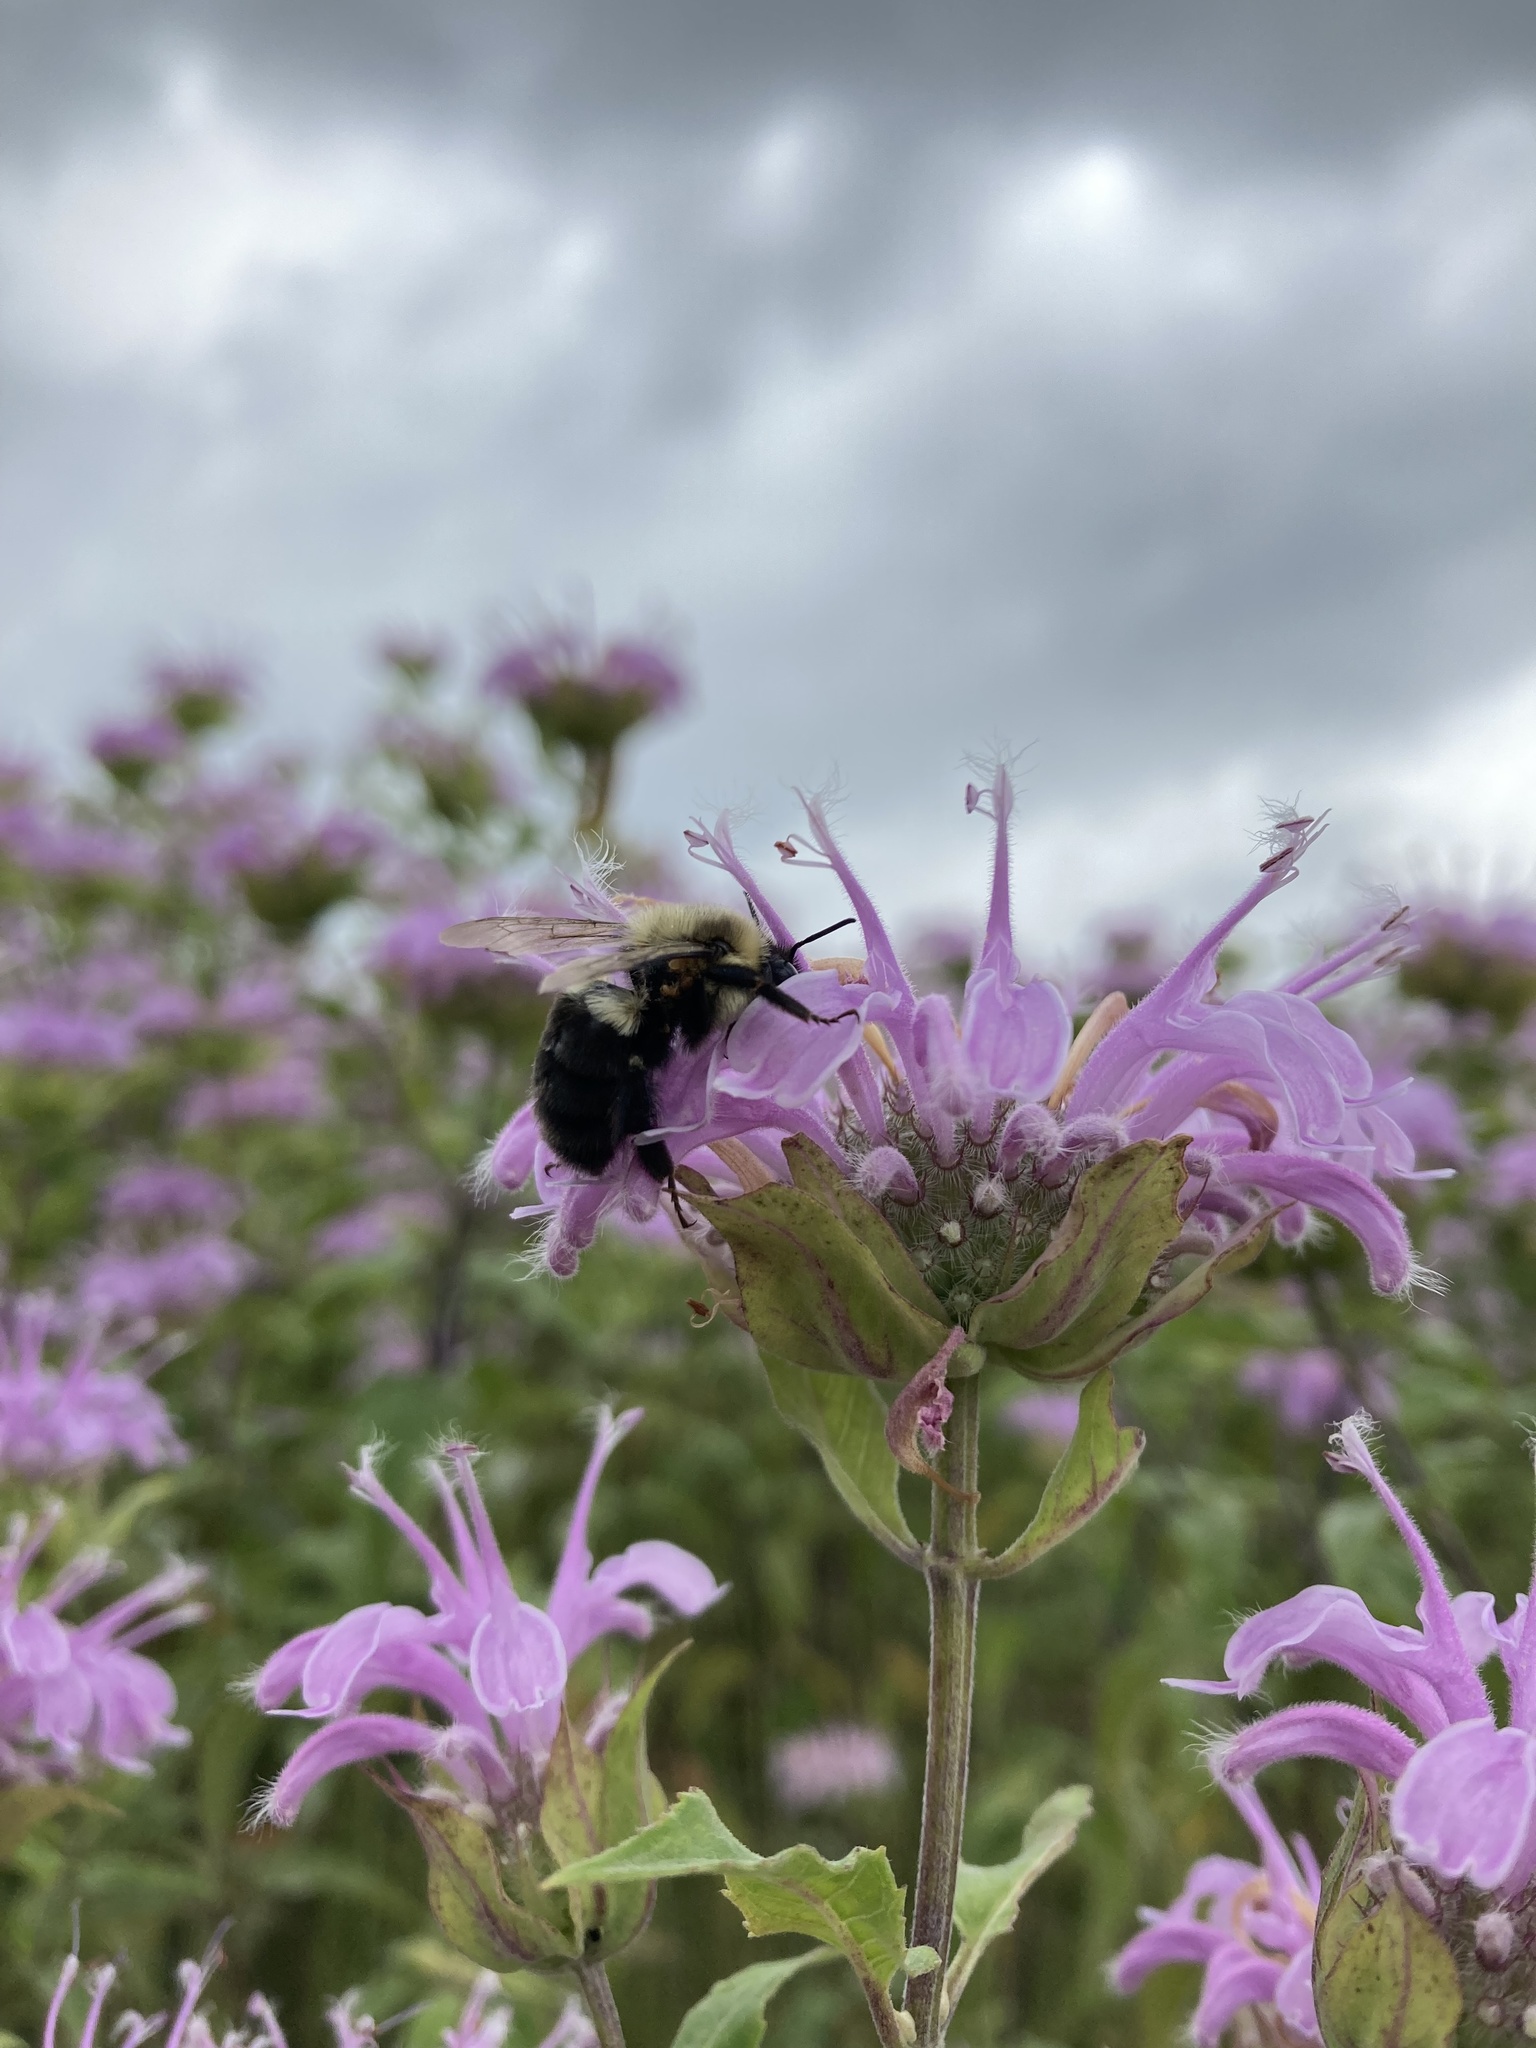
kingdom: Animalia
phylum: Arthropoda
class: Insecta
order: Hymenoptera
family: Apidae
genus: Bombus
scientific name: Bombus impatiens
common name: Common eastern bumble bee
